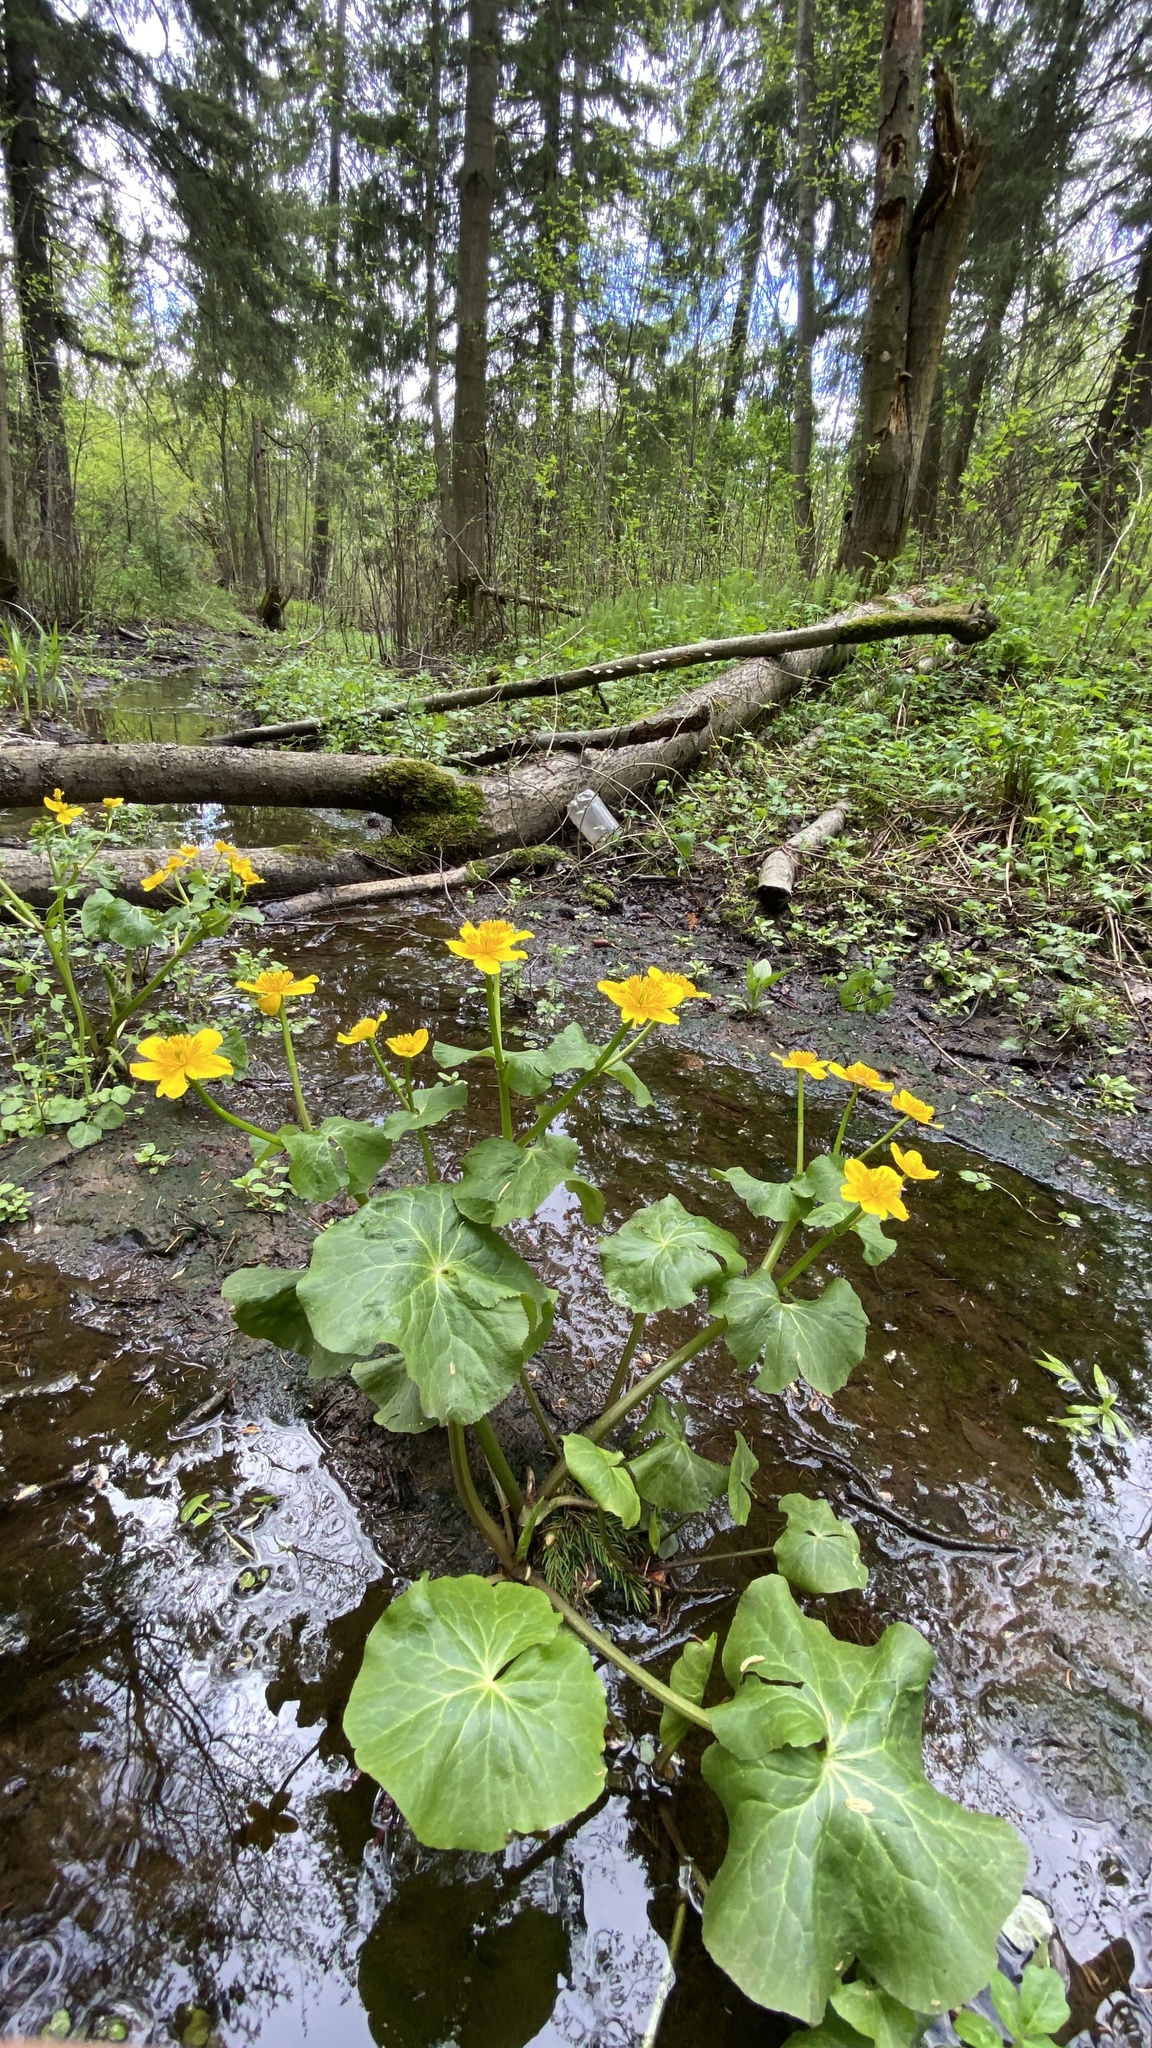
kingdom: Plantae
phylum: Tracheophyta
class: Magnoliopsida
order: Ranunculales
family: Ranunculaceae
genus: Caltha
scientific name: Caltha palustris
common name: Marsh marigold
